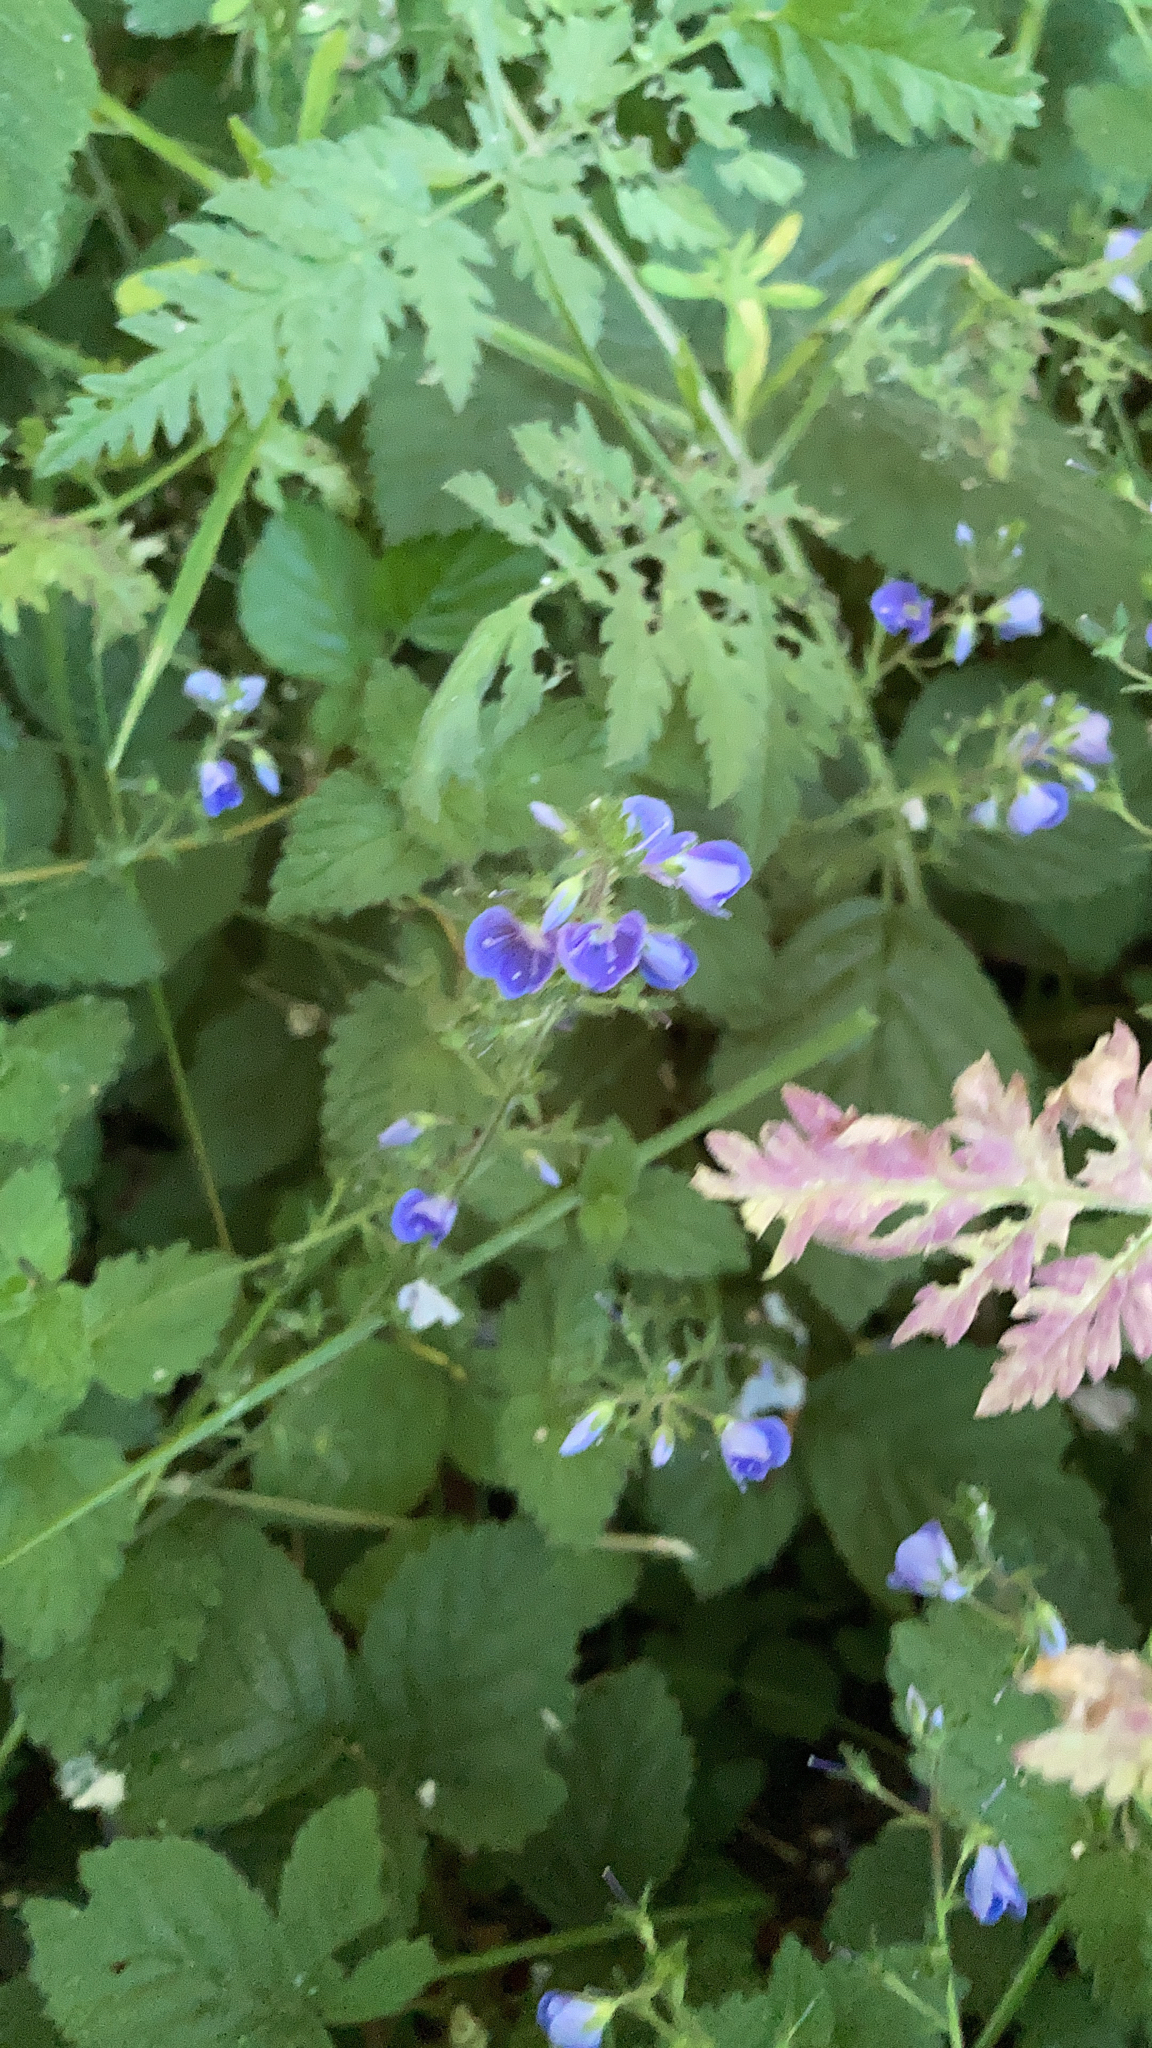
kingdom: Plantae
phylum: Tracheophyta
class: Magnoliopsida
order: Lamiales
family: Plantaginaceae
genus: Veronica
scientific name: Veronica chamaedrys
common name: Germander speedwell
